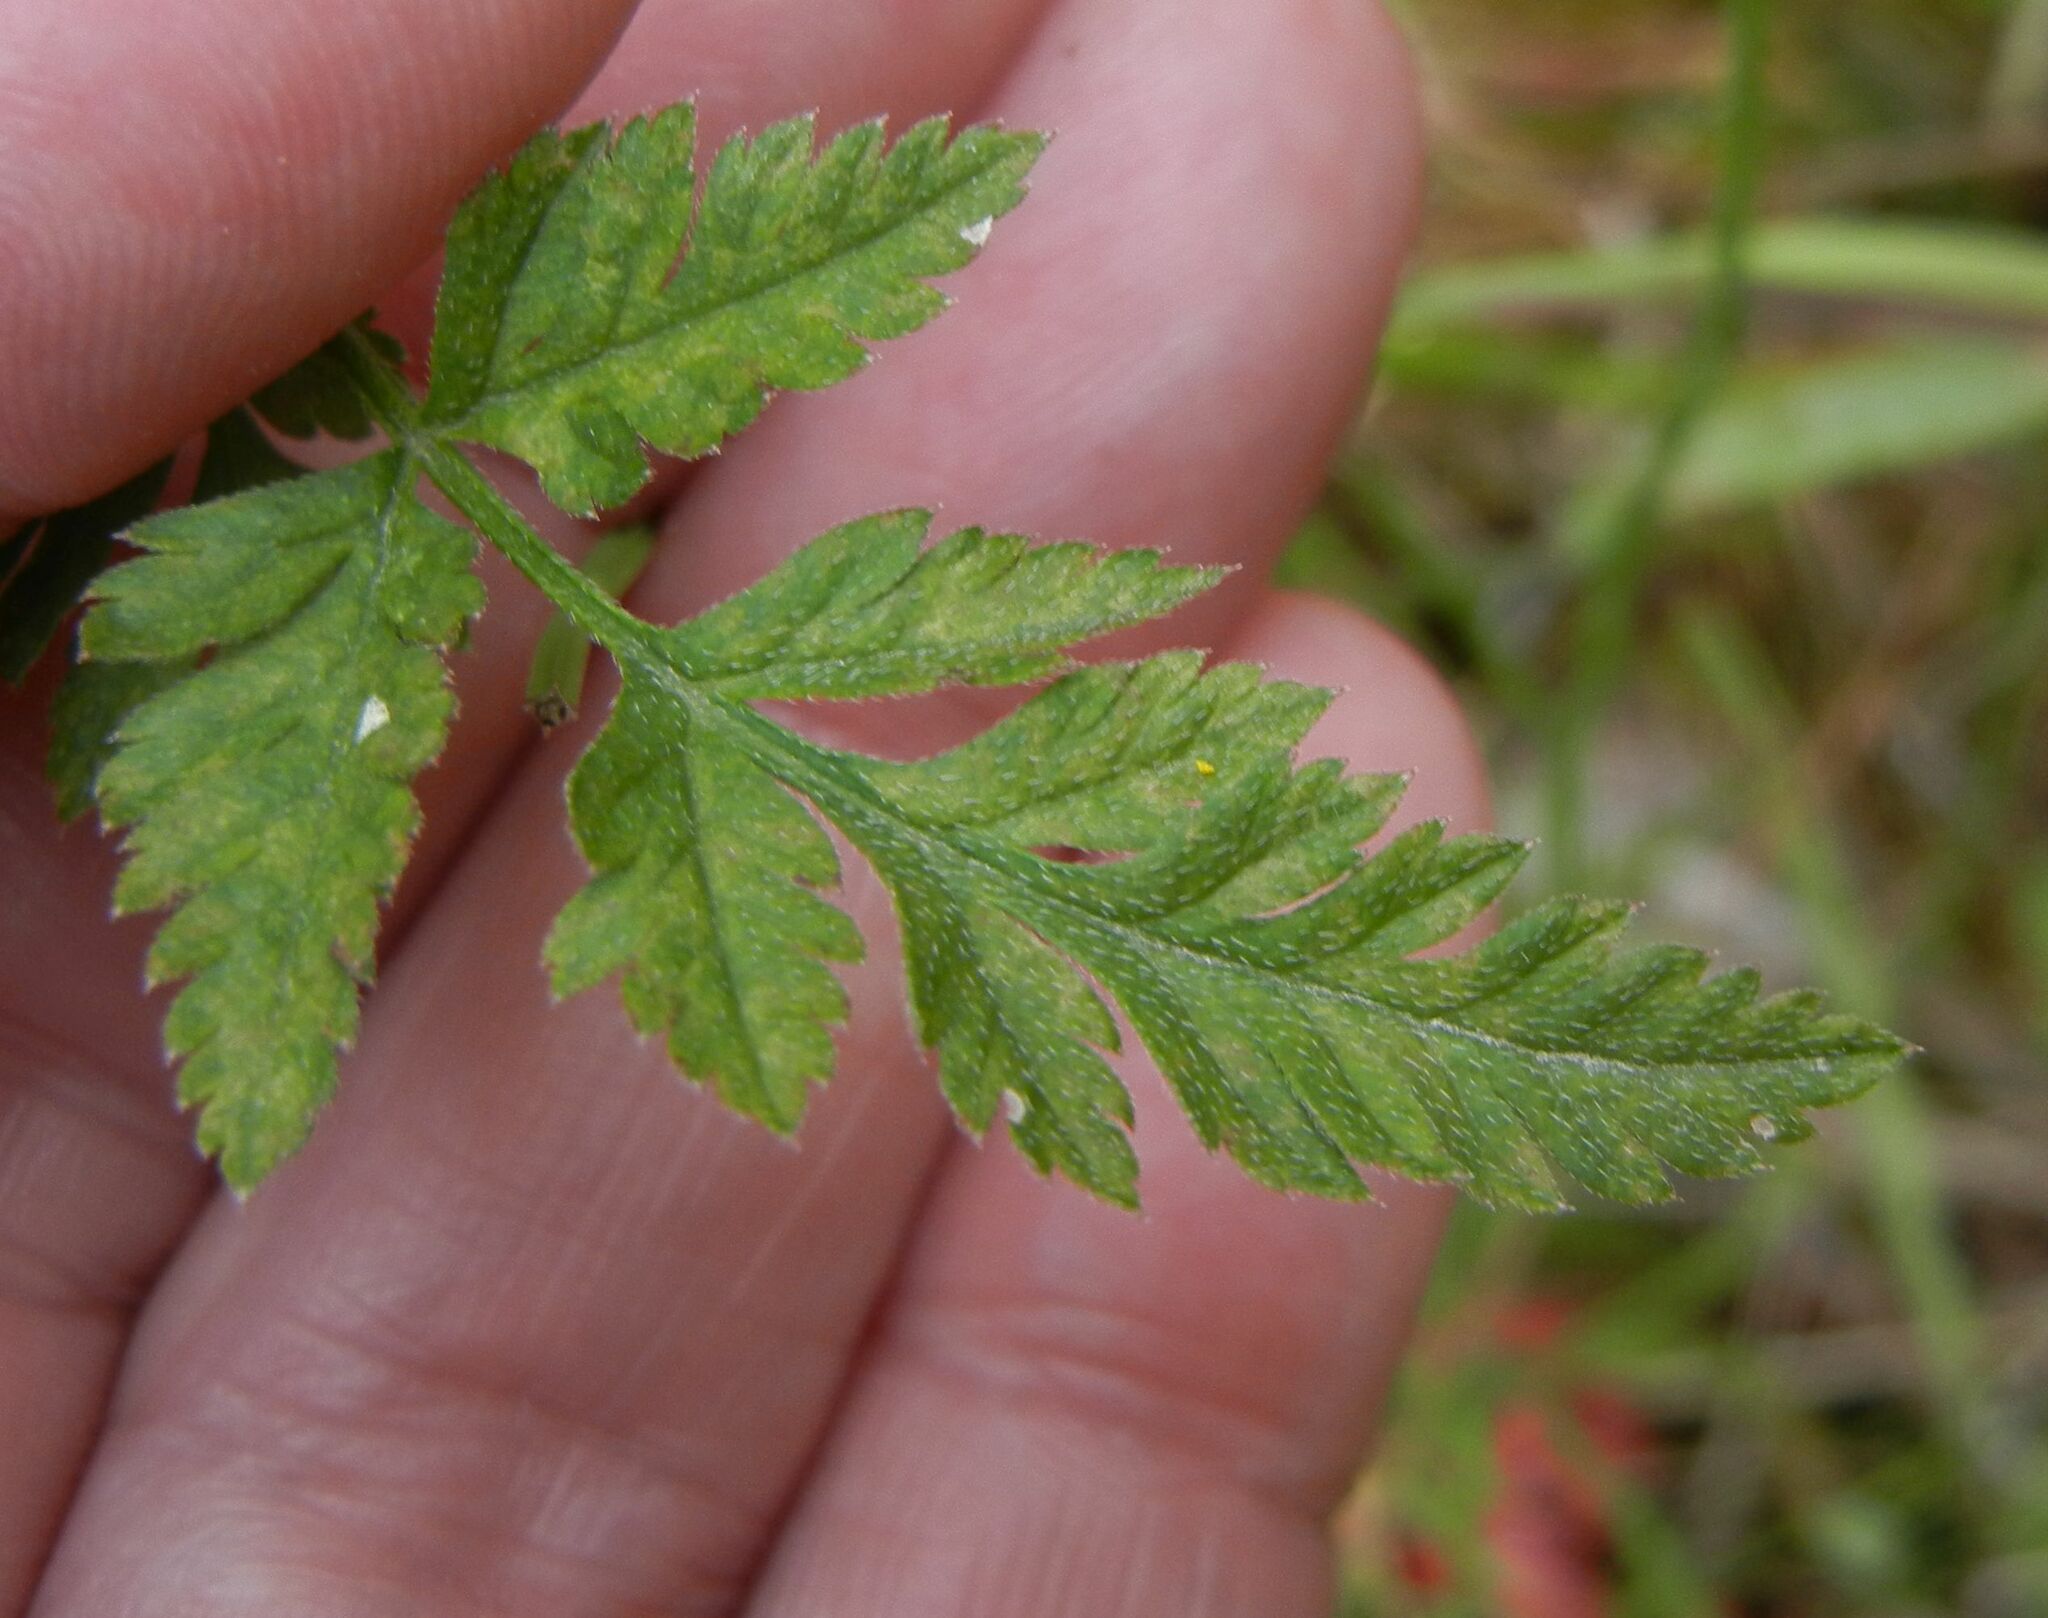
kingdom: Plantae
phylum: Tracheophyta
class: Magnoliopsida
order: Apiales
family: Apiaceae
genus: Torilis
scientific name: Torilis japonica
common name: Upright hedge-parsley
